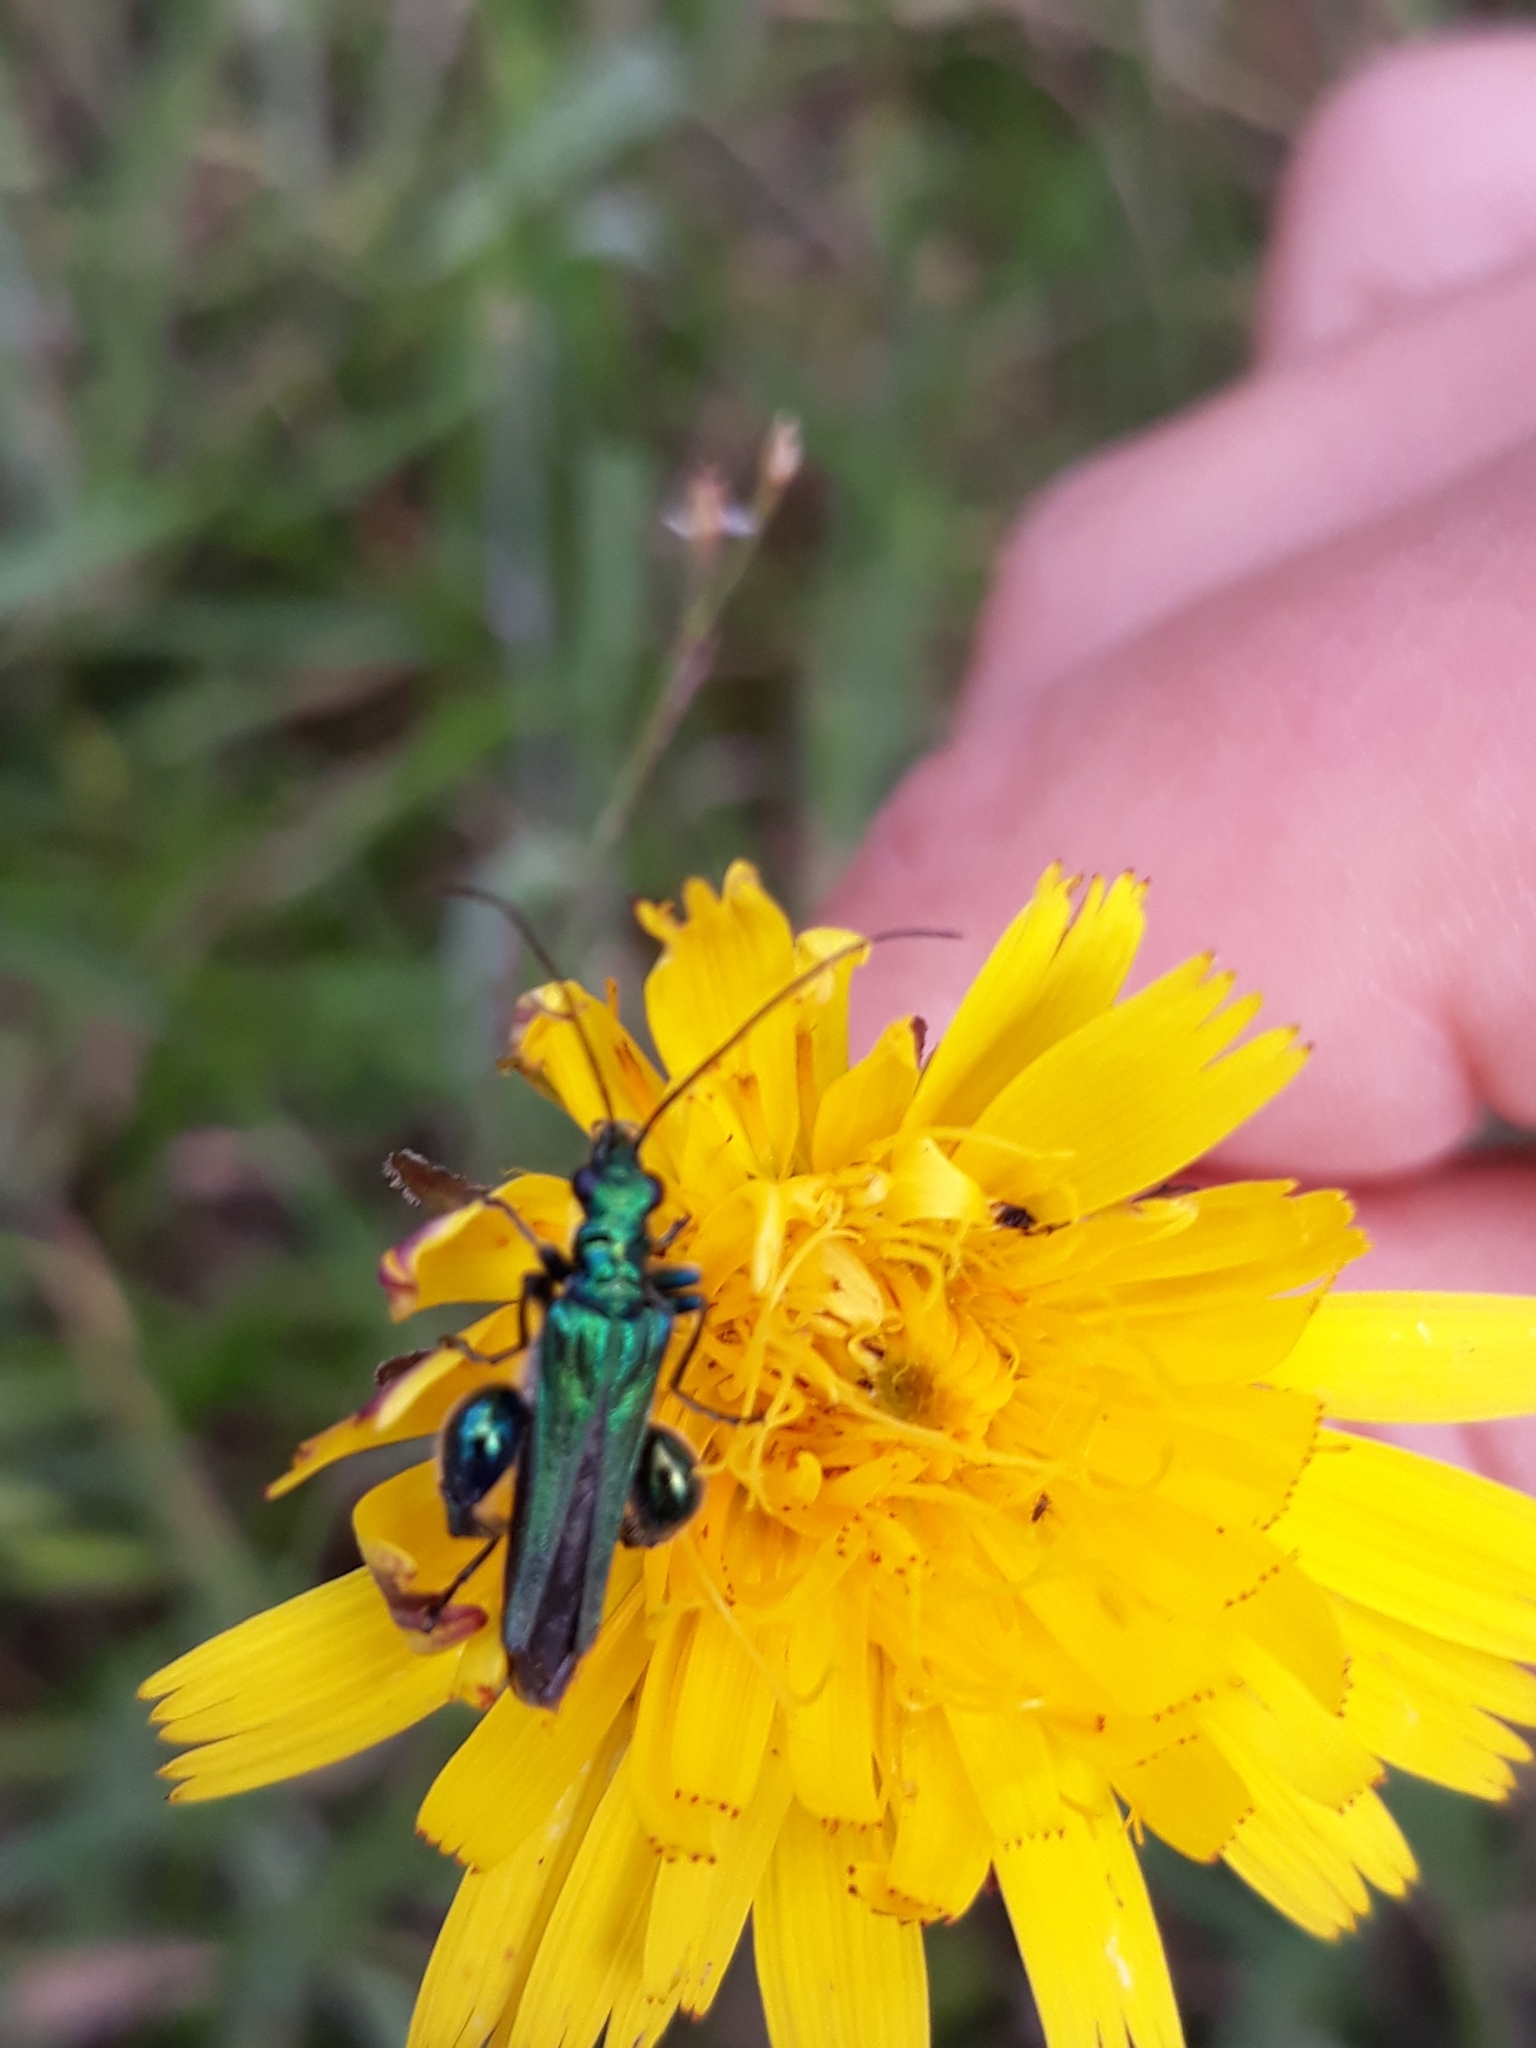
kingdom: Animalia
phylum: Arthropoda
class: Insecta
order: Coleoptera
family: Oedemeridae
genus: Oedemera
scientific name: Oedemera nobilis
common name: Swollen-thighed beetle
